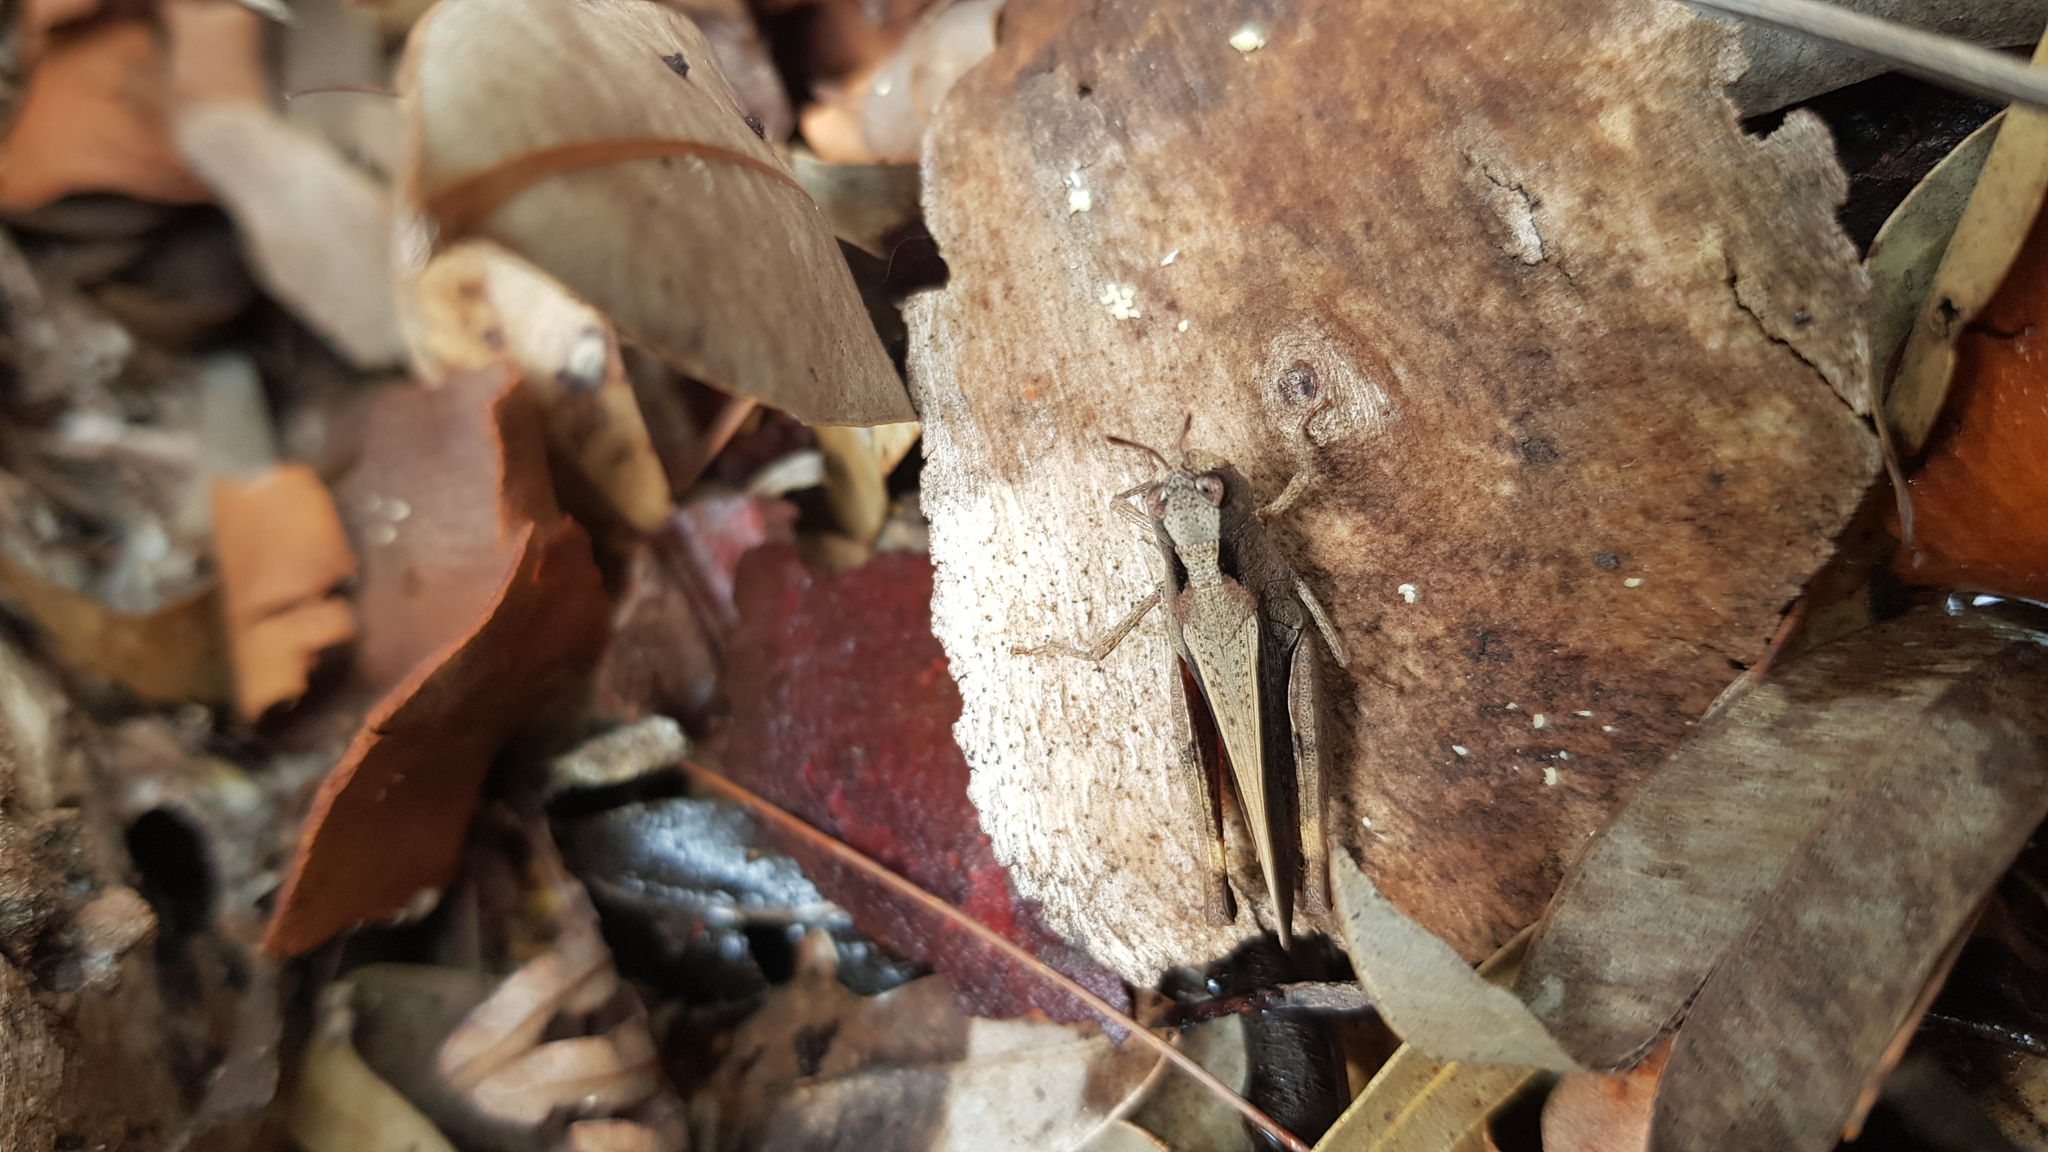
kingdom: Animalia
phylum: Arthropoda
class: Insecta
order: Orthoptera
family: Acrididae
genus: Cryptobothrus
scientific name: Cryptobothrus chrysophorus
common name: Golden bandwing
